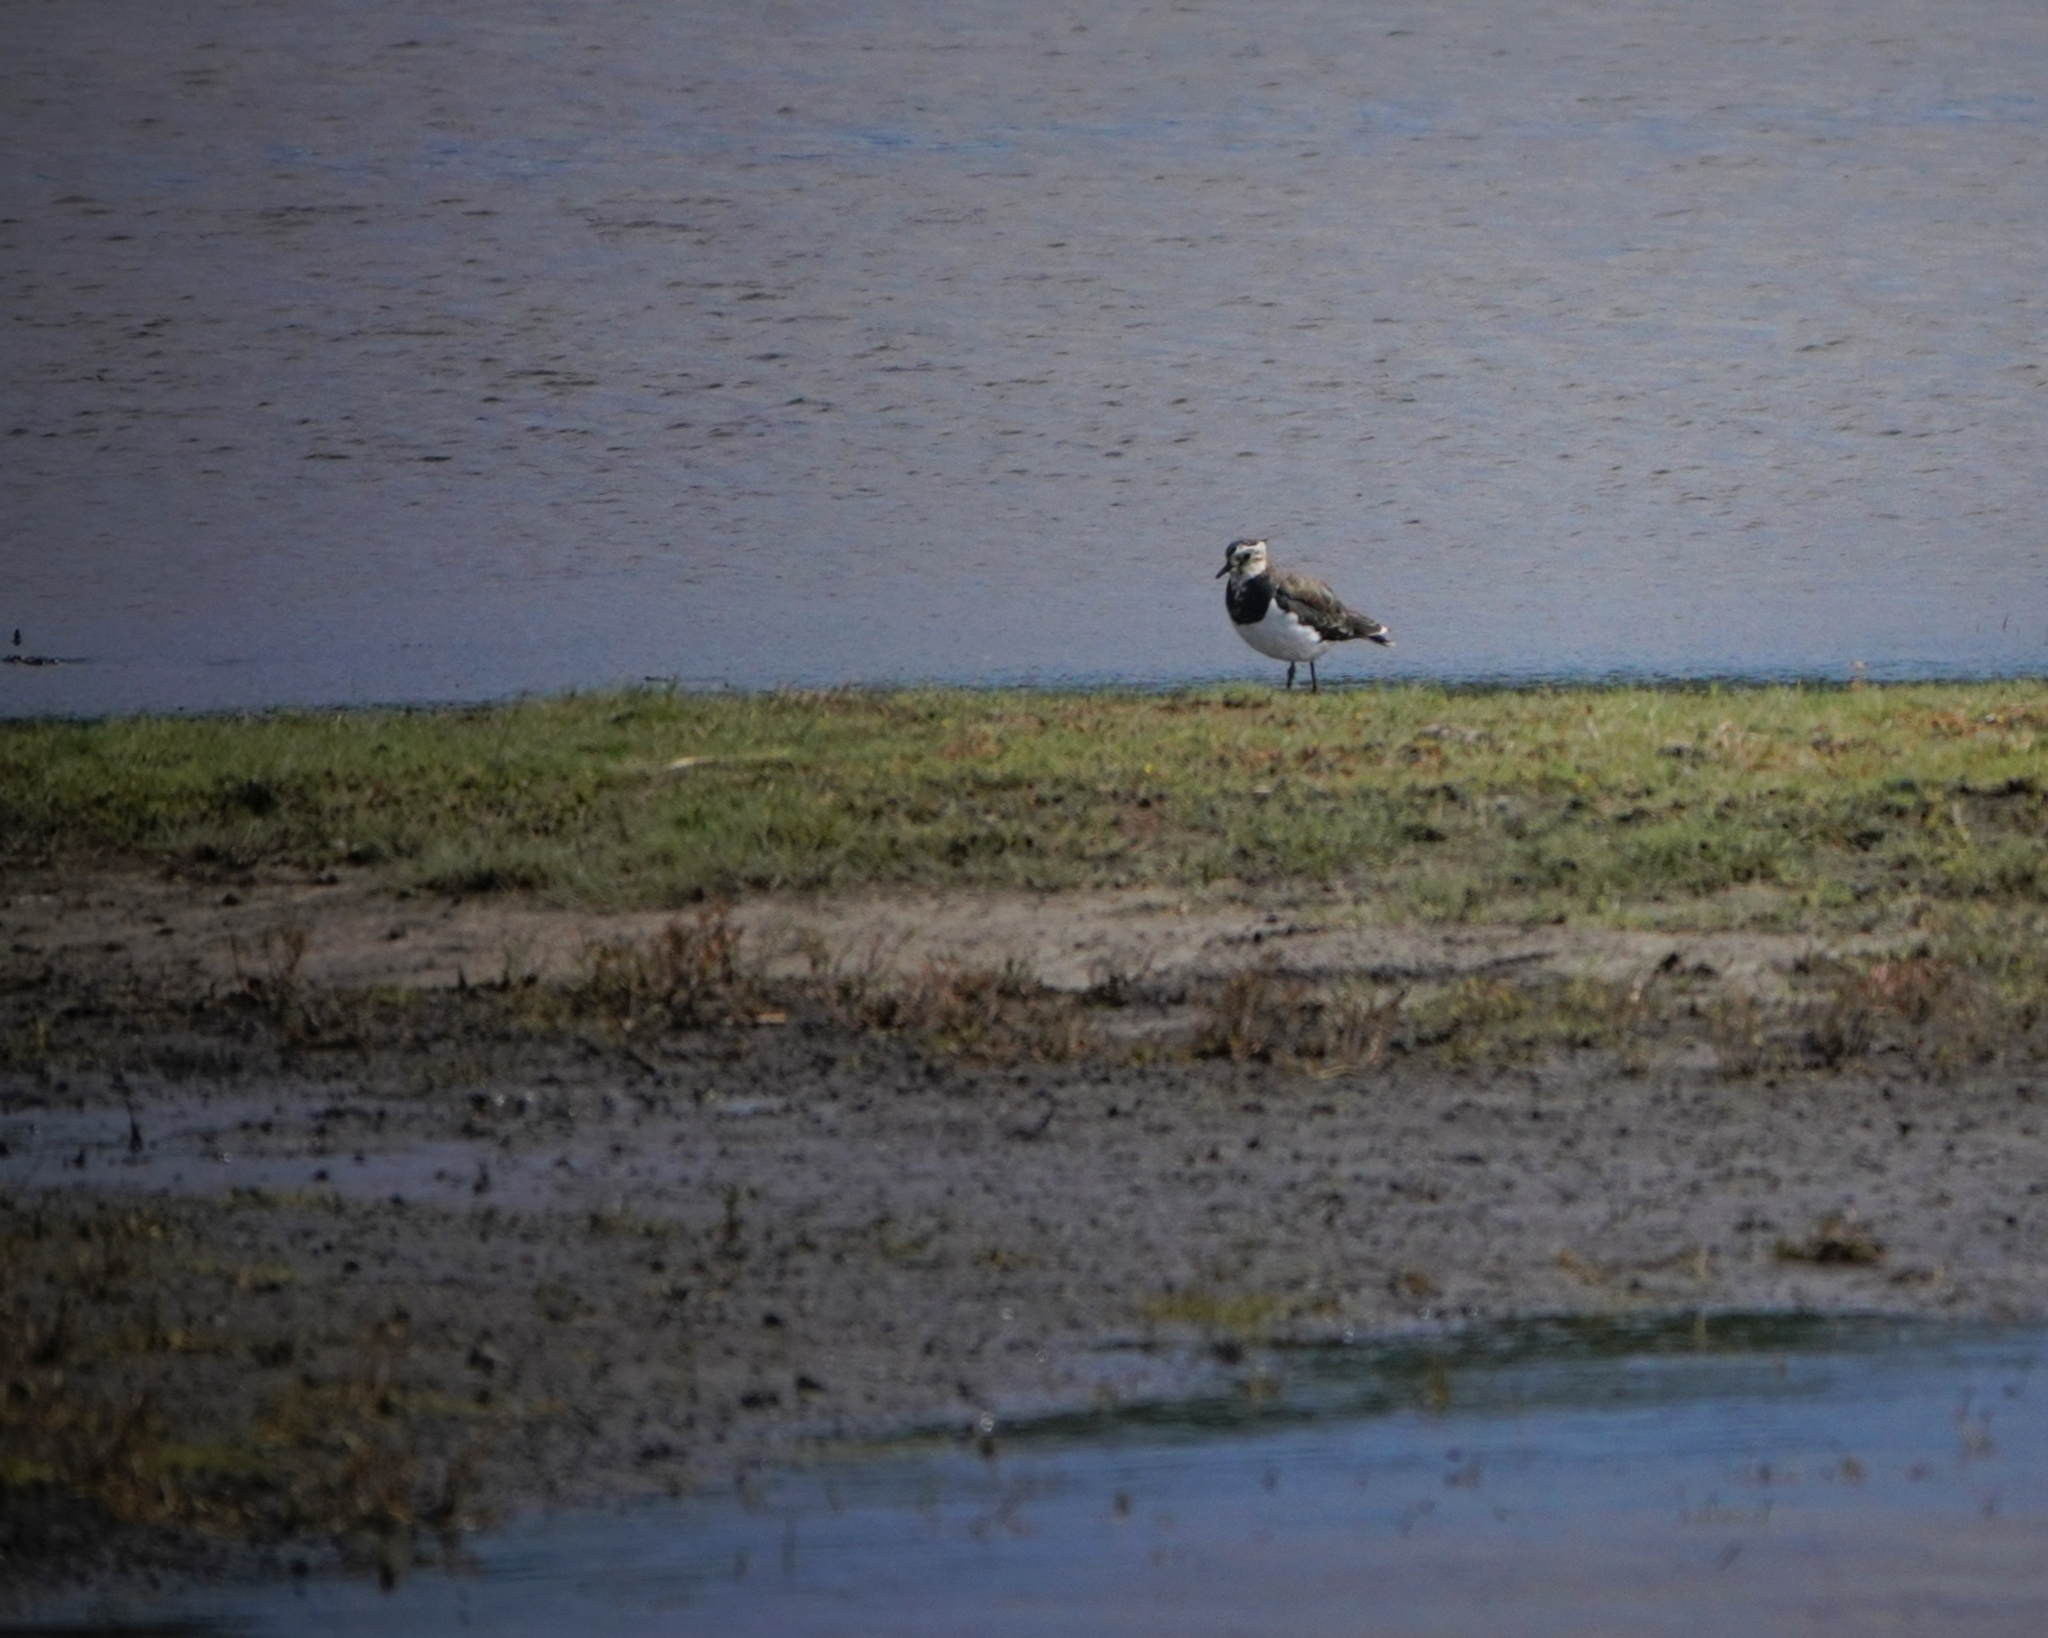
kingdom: Animalia
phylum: Chordata
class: Aves
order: Charadriiformes
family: Charadriidae
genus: Vanellus
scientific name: Vanellus vanellus
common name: Northern lapwing
